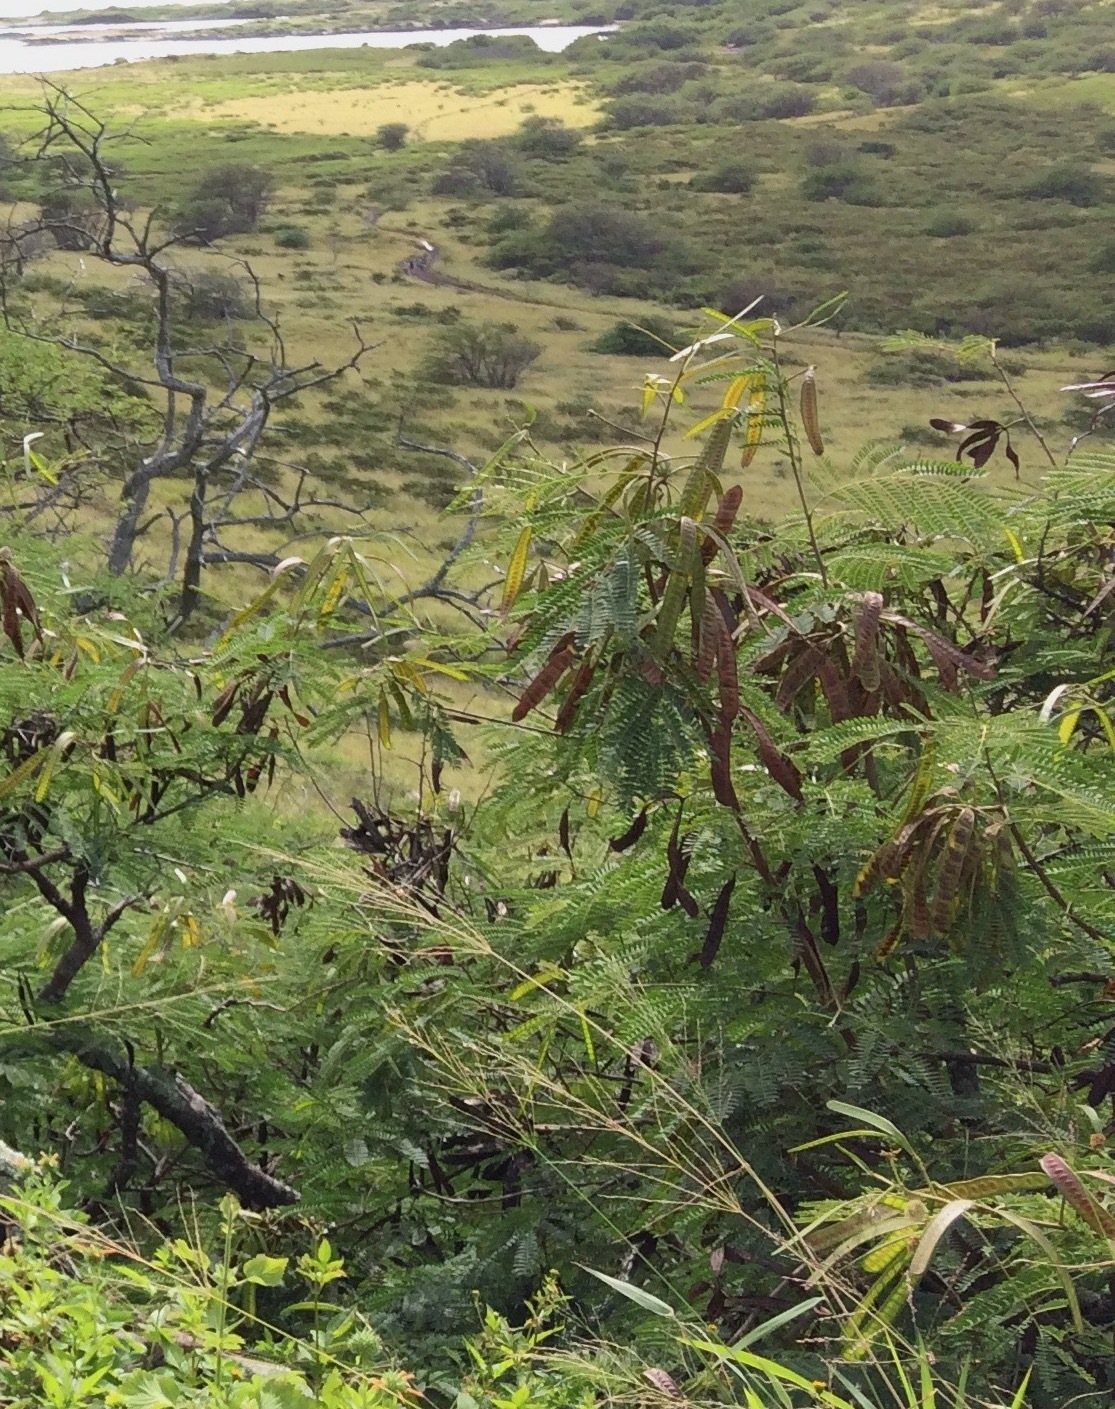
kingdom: Plantae
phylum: Tracheophyta
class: Magnoliopsida
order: Fabales
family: Fabaceae
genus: Leucaena
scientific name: Leucaena leucocephala
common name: White leadtree
